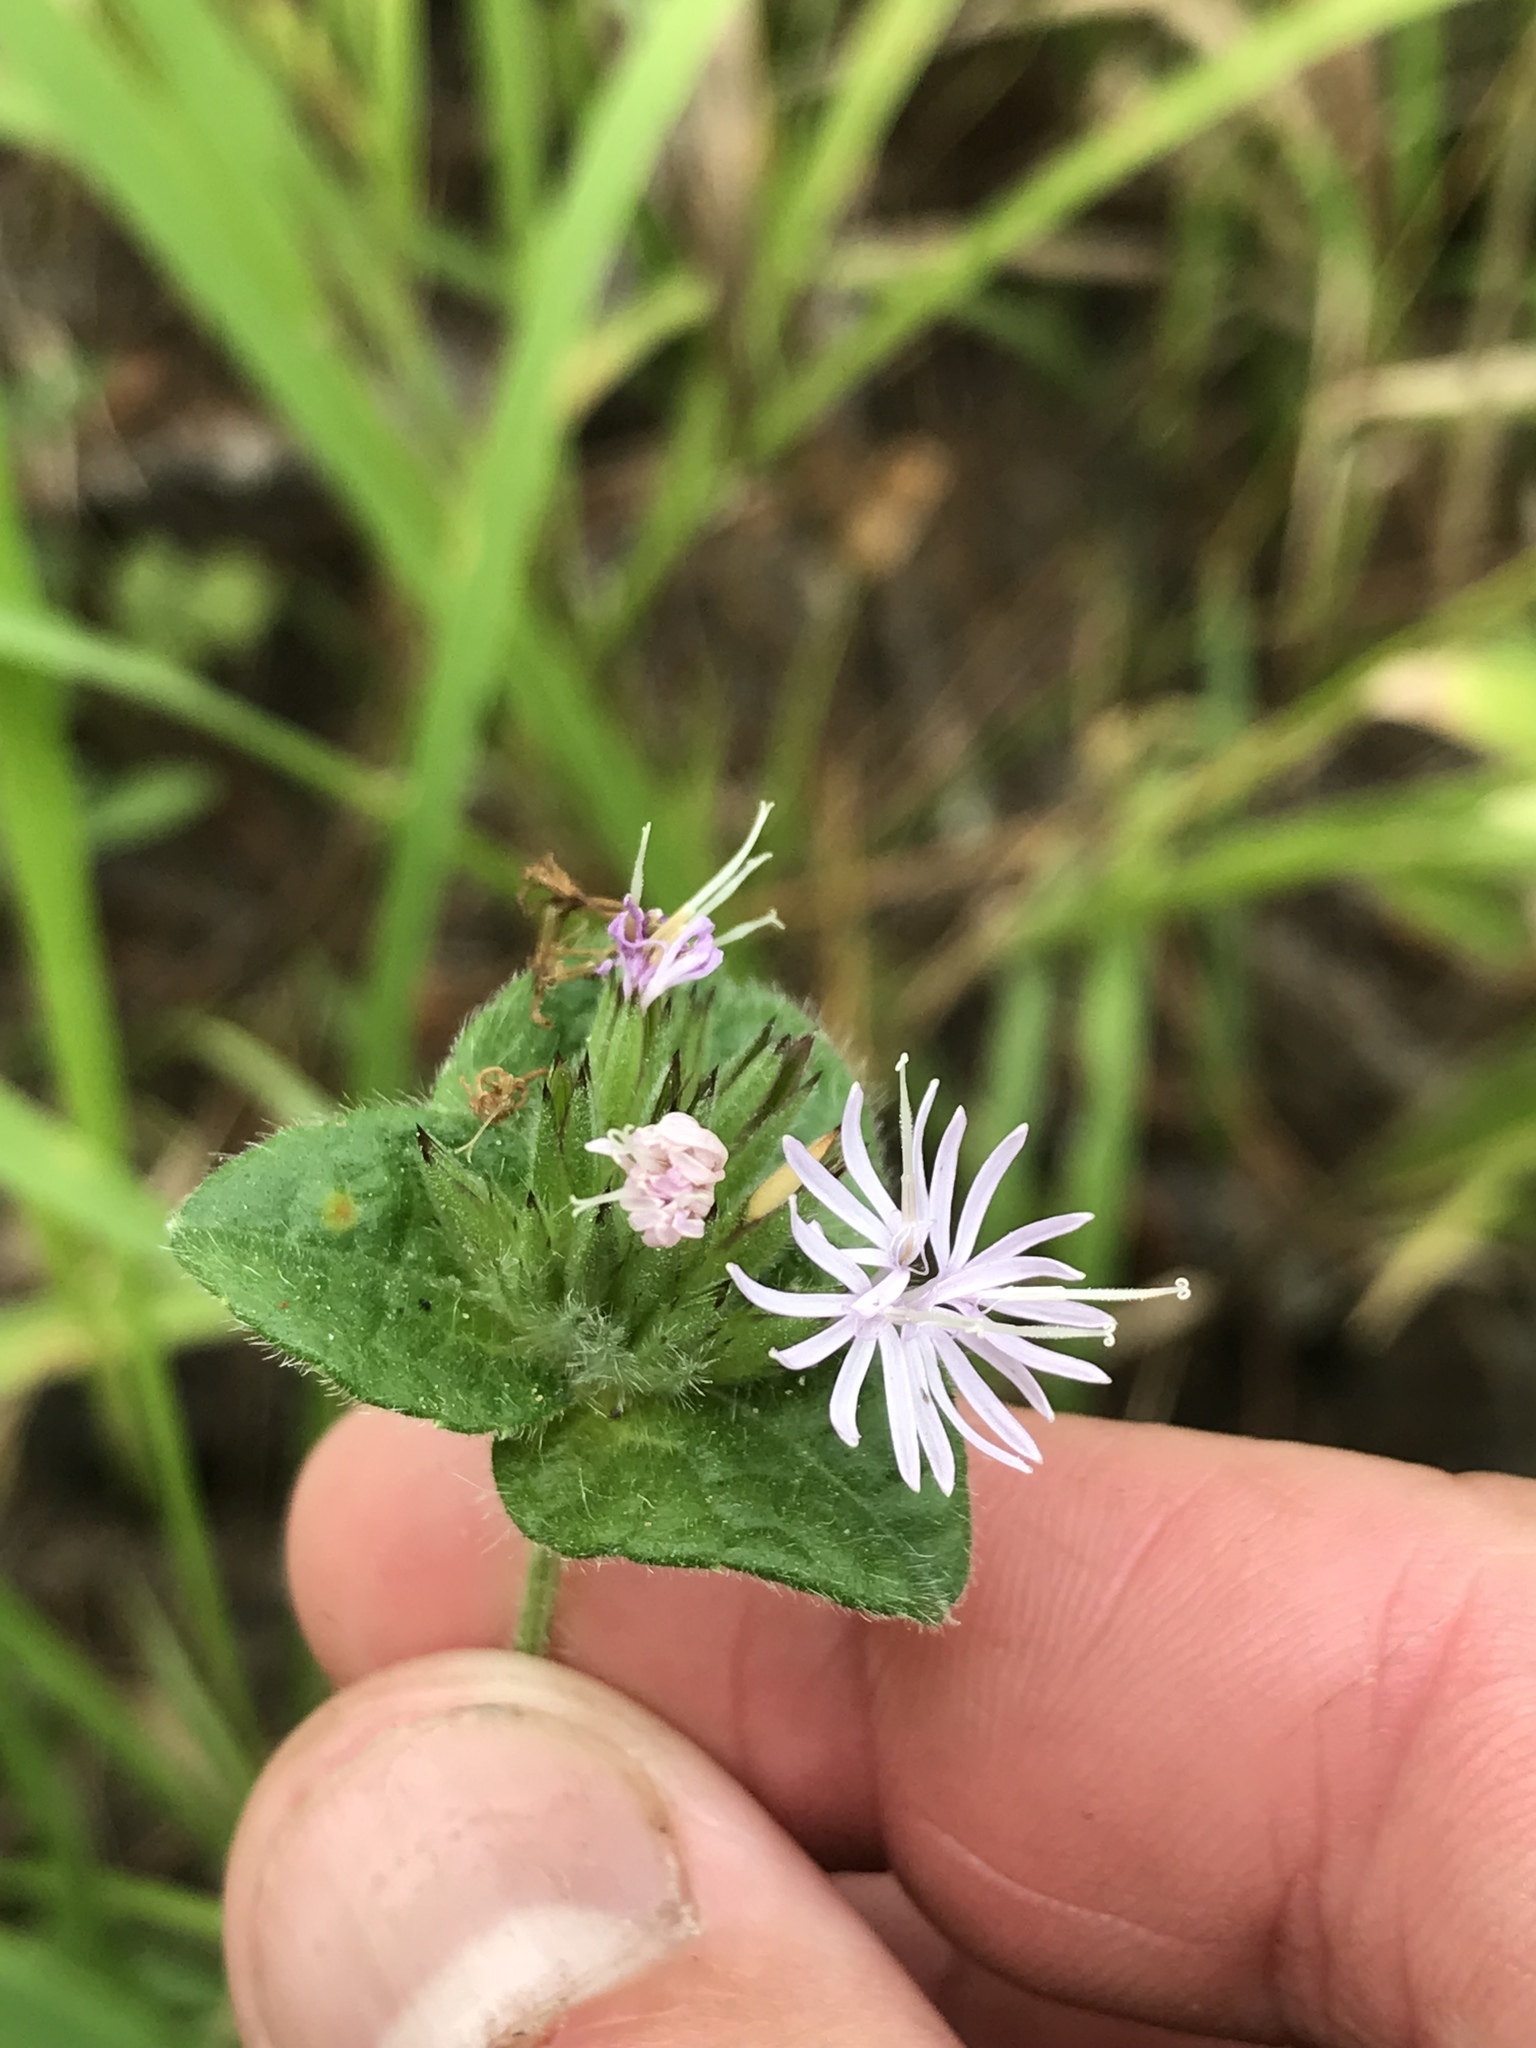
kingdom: Plantae
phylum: Tracheophyta
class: Magnoliopsida
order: Asterales
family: Asteraceae
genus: Elephantopus
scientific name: Elephantopus tomentosus
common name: Tobacco-weed
